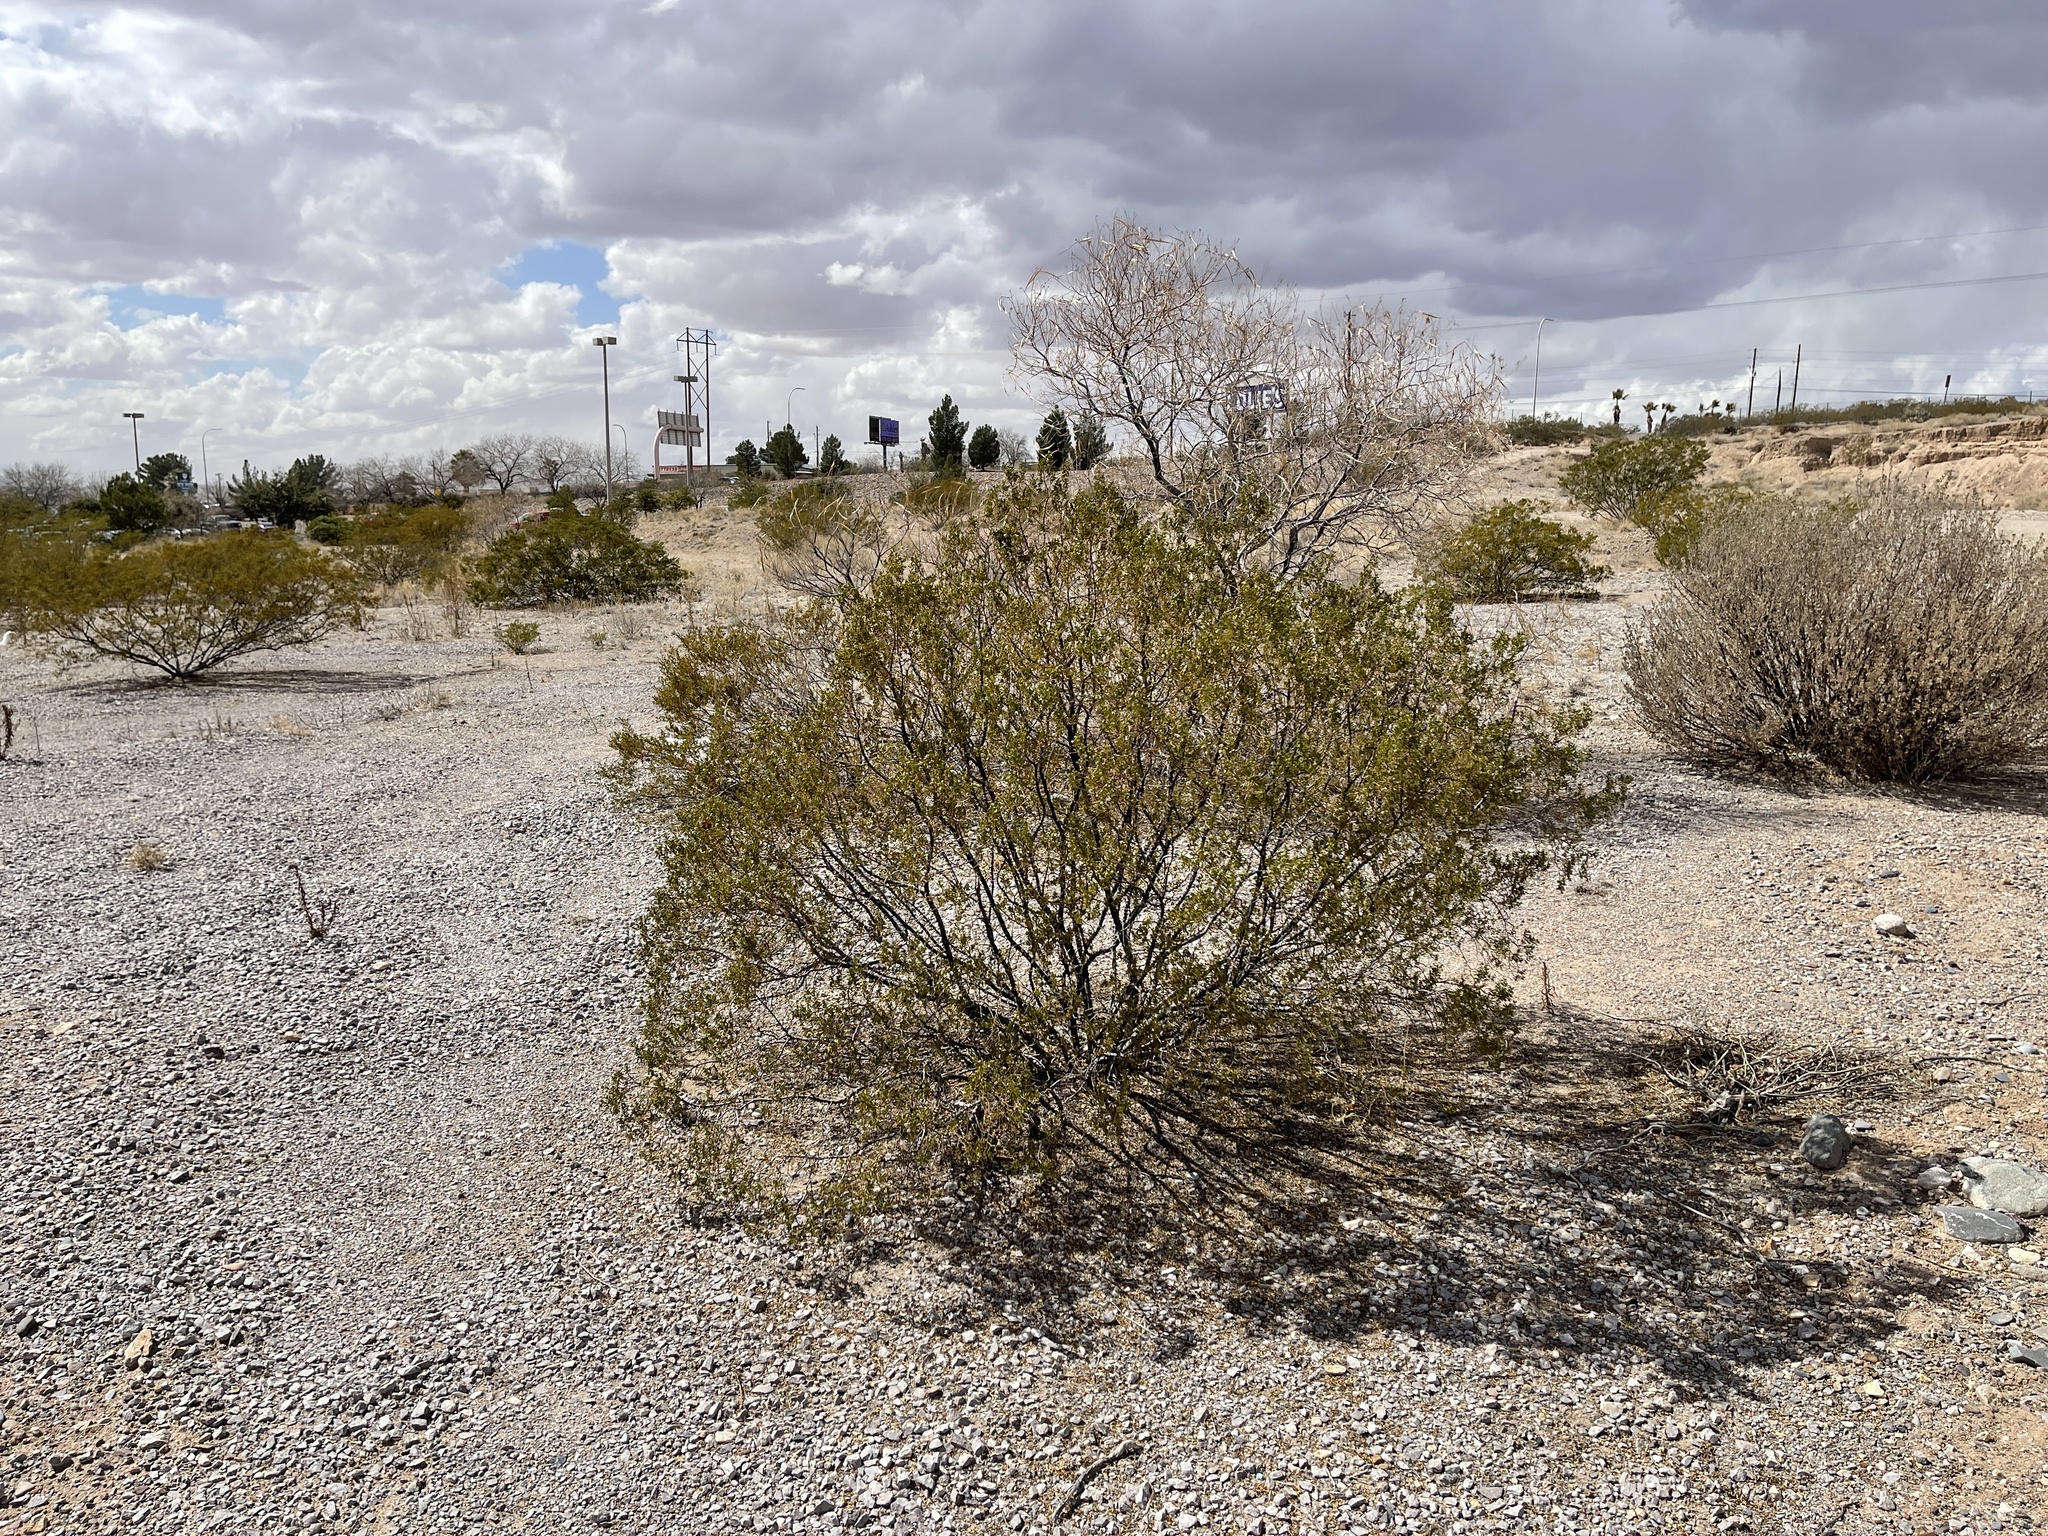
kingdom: Plantae
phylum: Tracheophyta
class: Magnoliopsida
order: Zygophyllales
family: Zygophyllaceae
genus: Larrea
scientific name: Larrea tridentata
